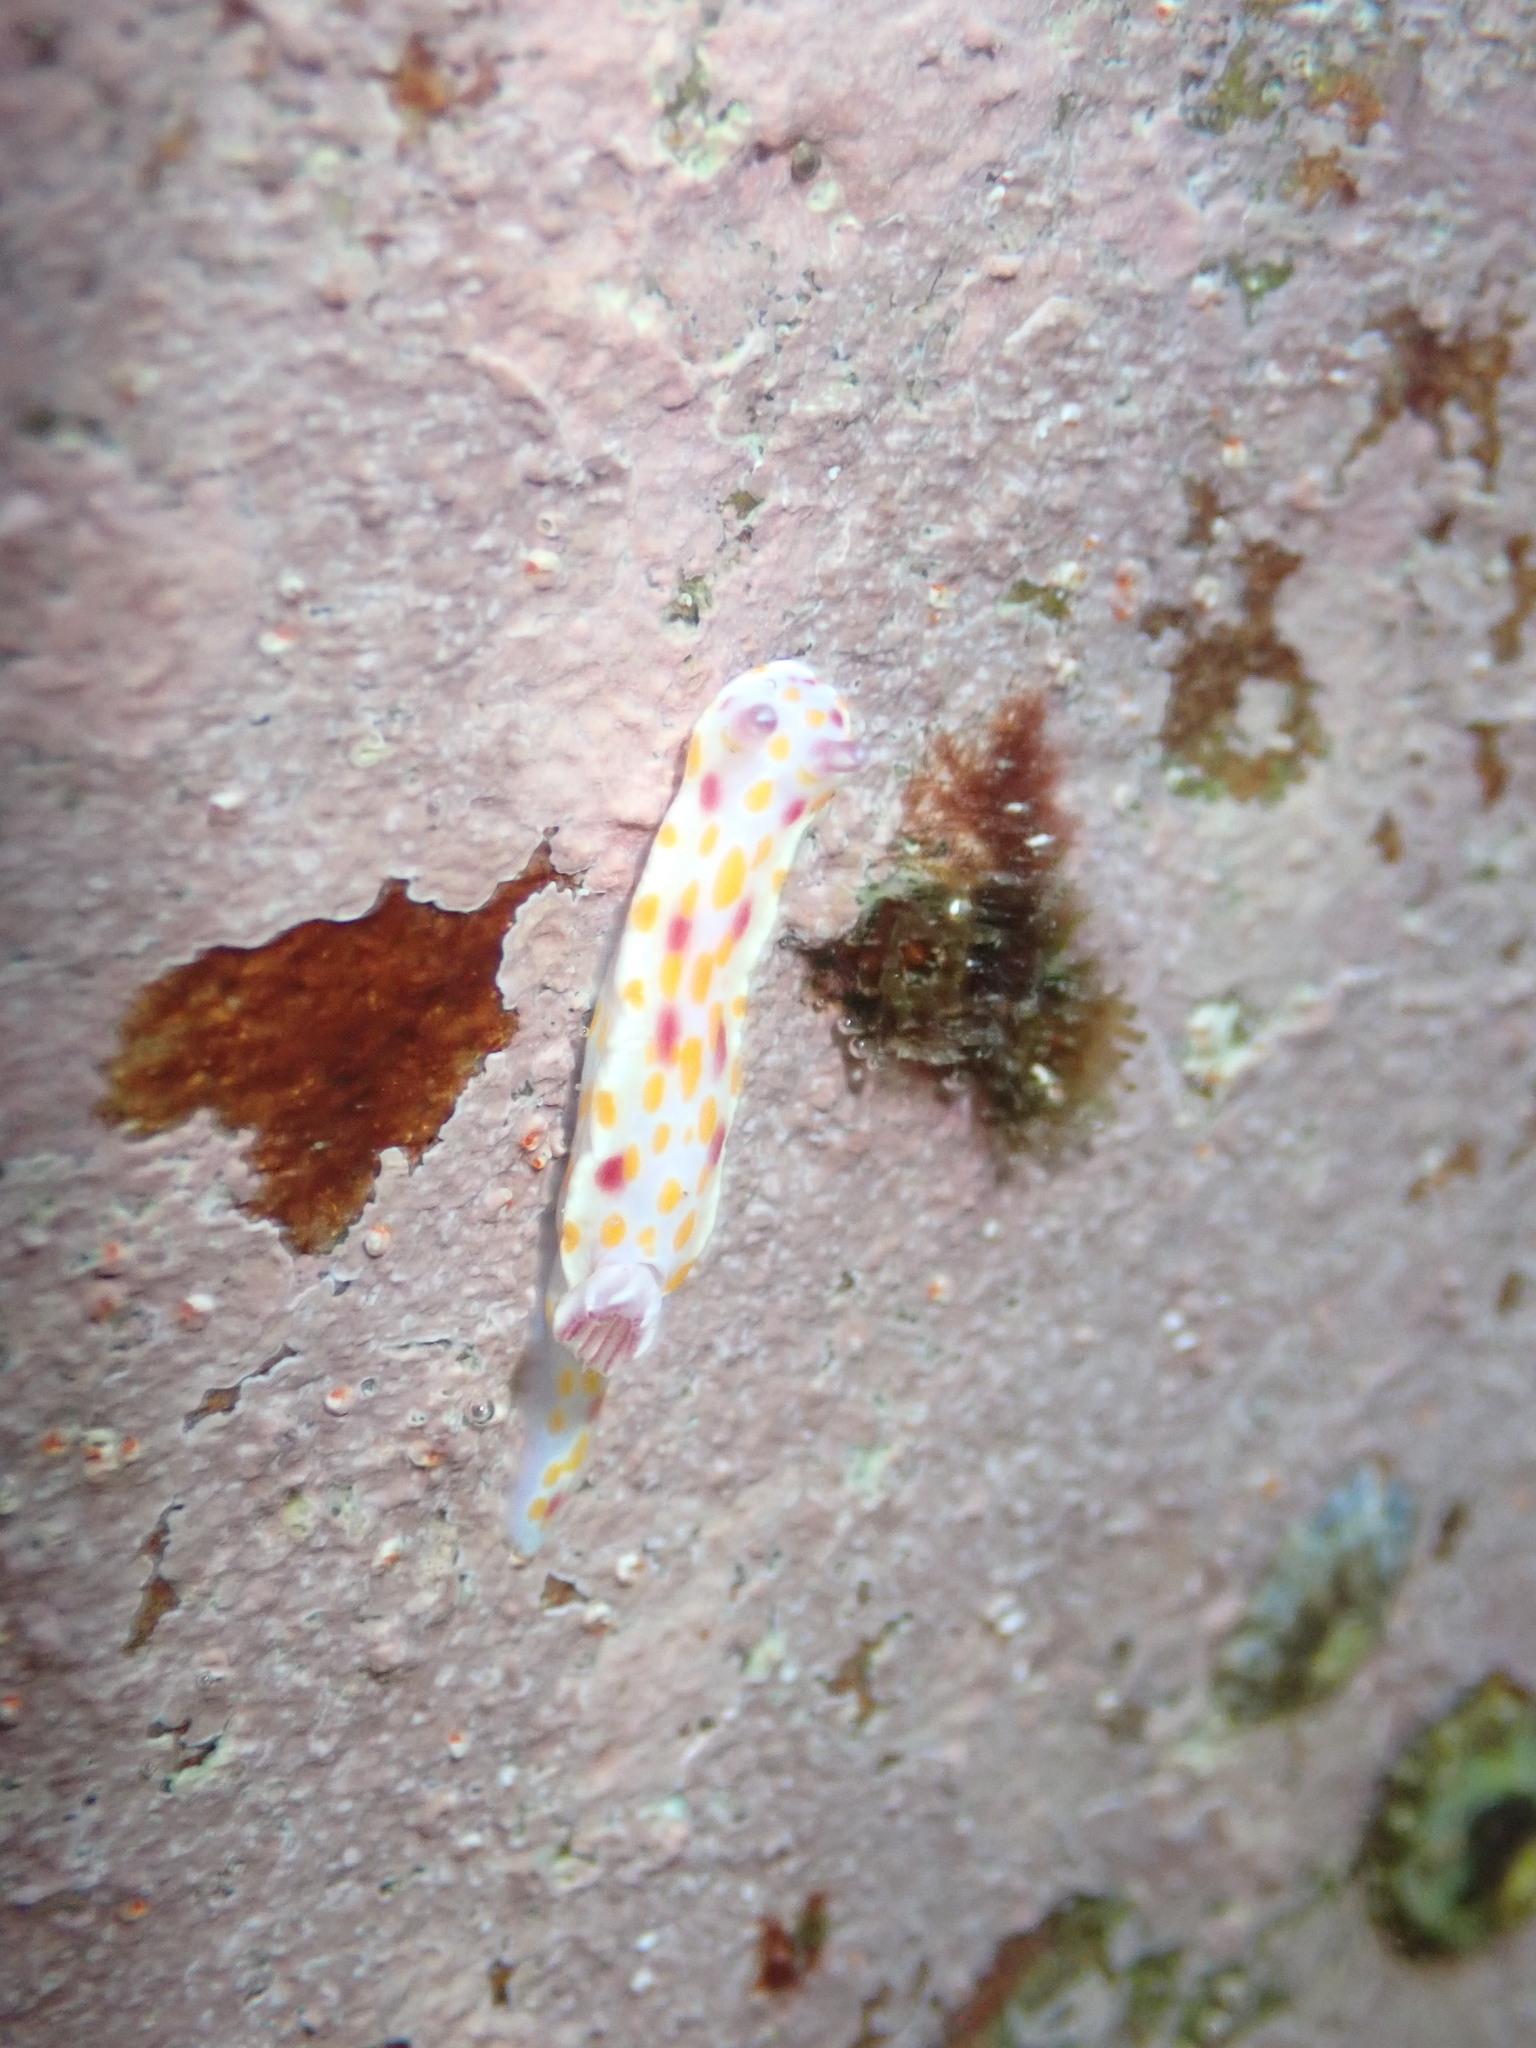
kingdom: Animalia
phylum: Mollusca
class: Gastropoda
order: Nudibranchia
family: Chromodorididae
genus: Ceratosoma
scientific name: Ceratosoma amoenum
